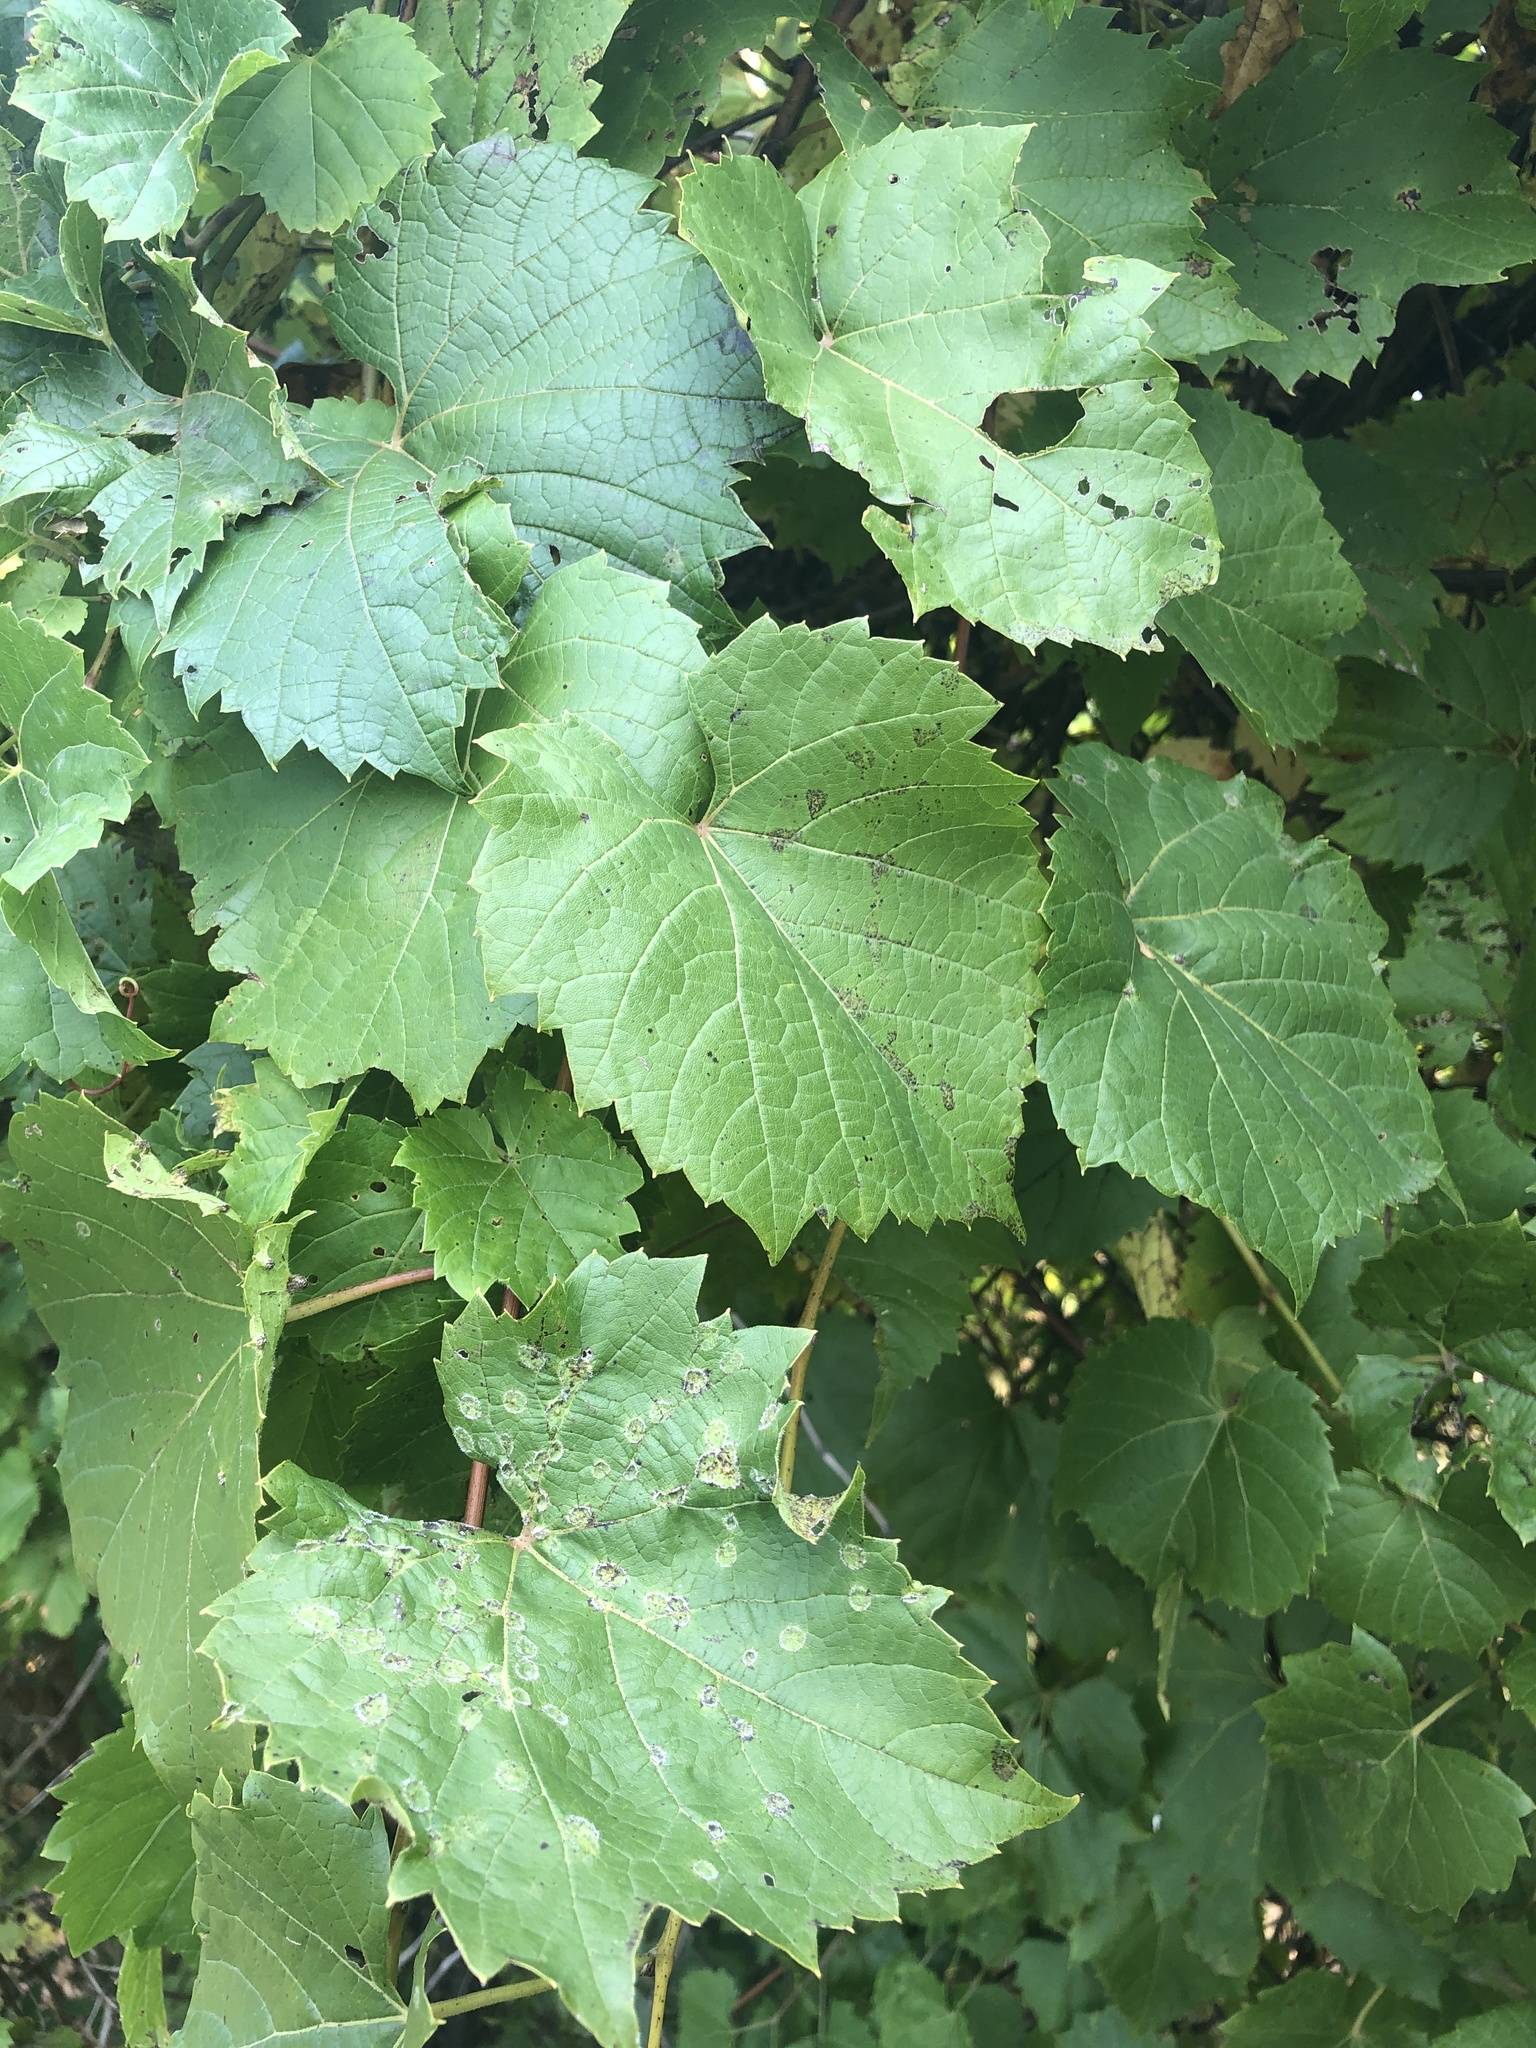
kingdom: Plantae
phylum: Tracheophyta
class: Magnoliopsida
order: Vitales
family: Vitaceae
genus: Vitis
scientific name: Vitis riparia
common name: Frost grape
